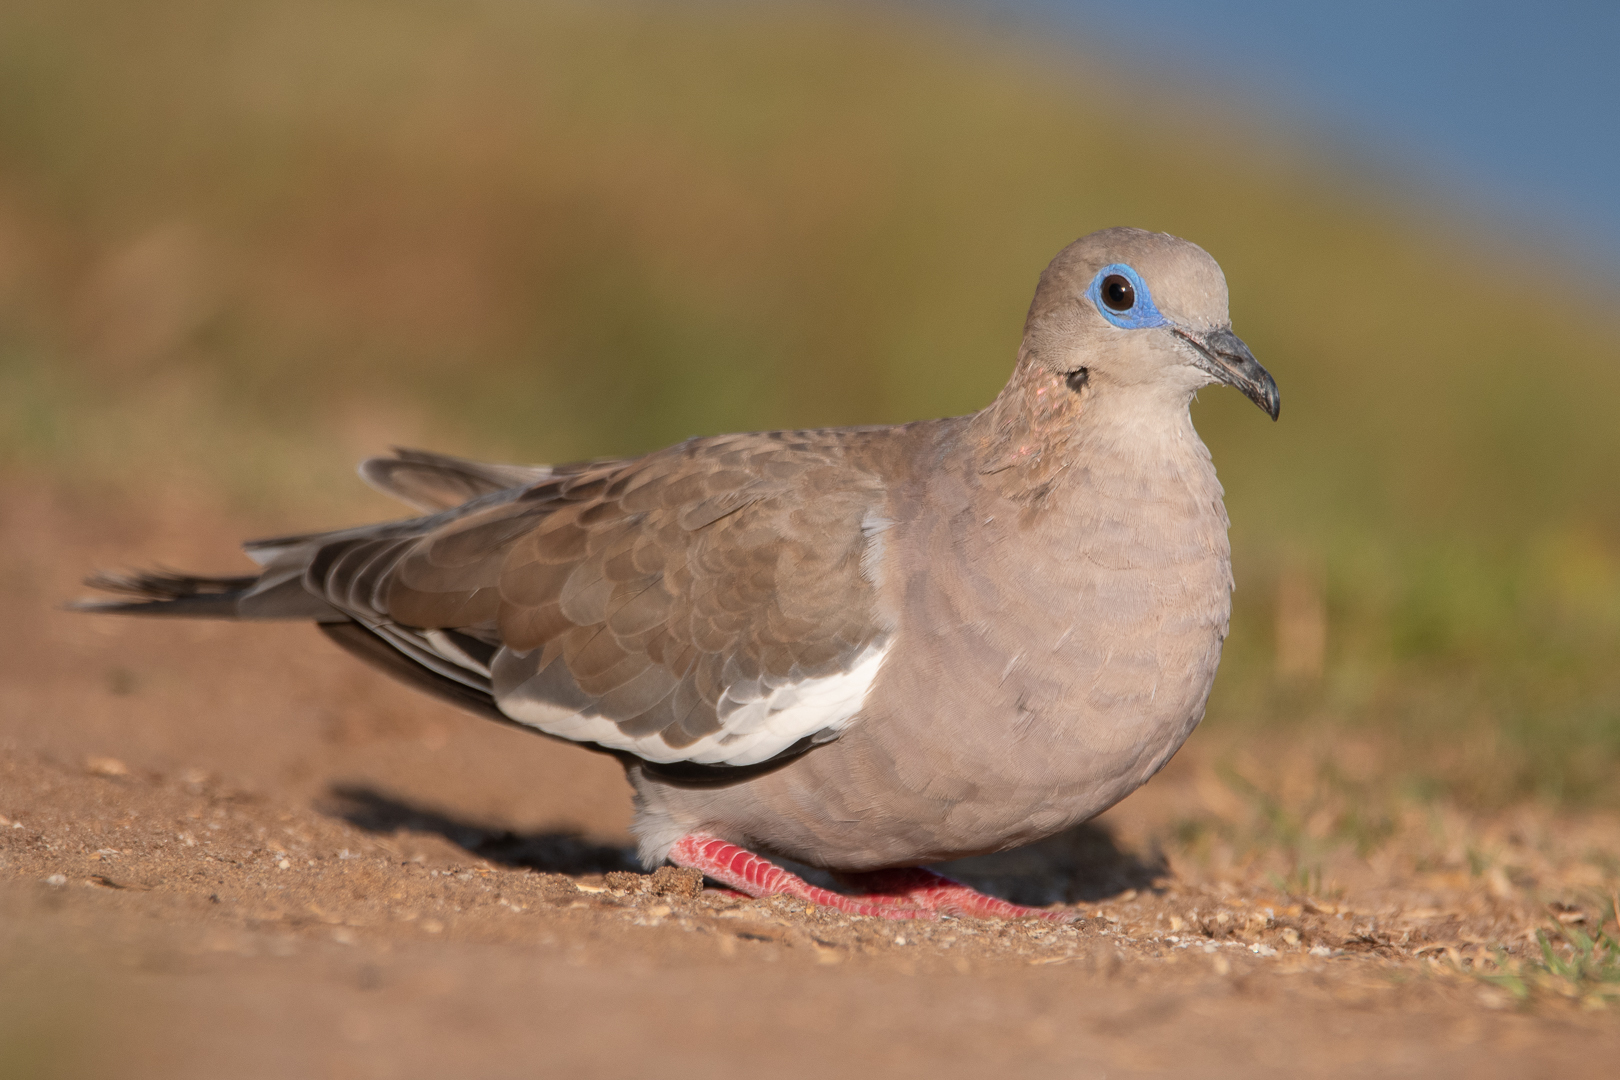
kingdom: Animalia
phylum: Chordata
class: Aves
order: Columbiformes
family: Columbidae
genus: Zenaida
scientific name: Zenaida meloda
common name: West peruvian dove
